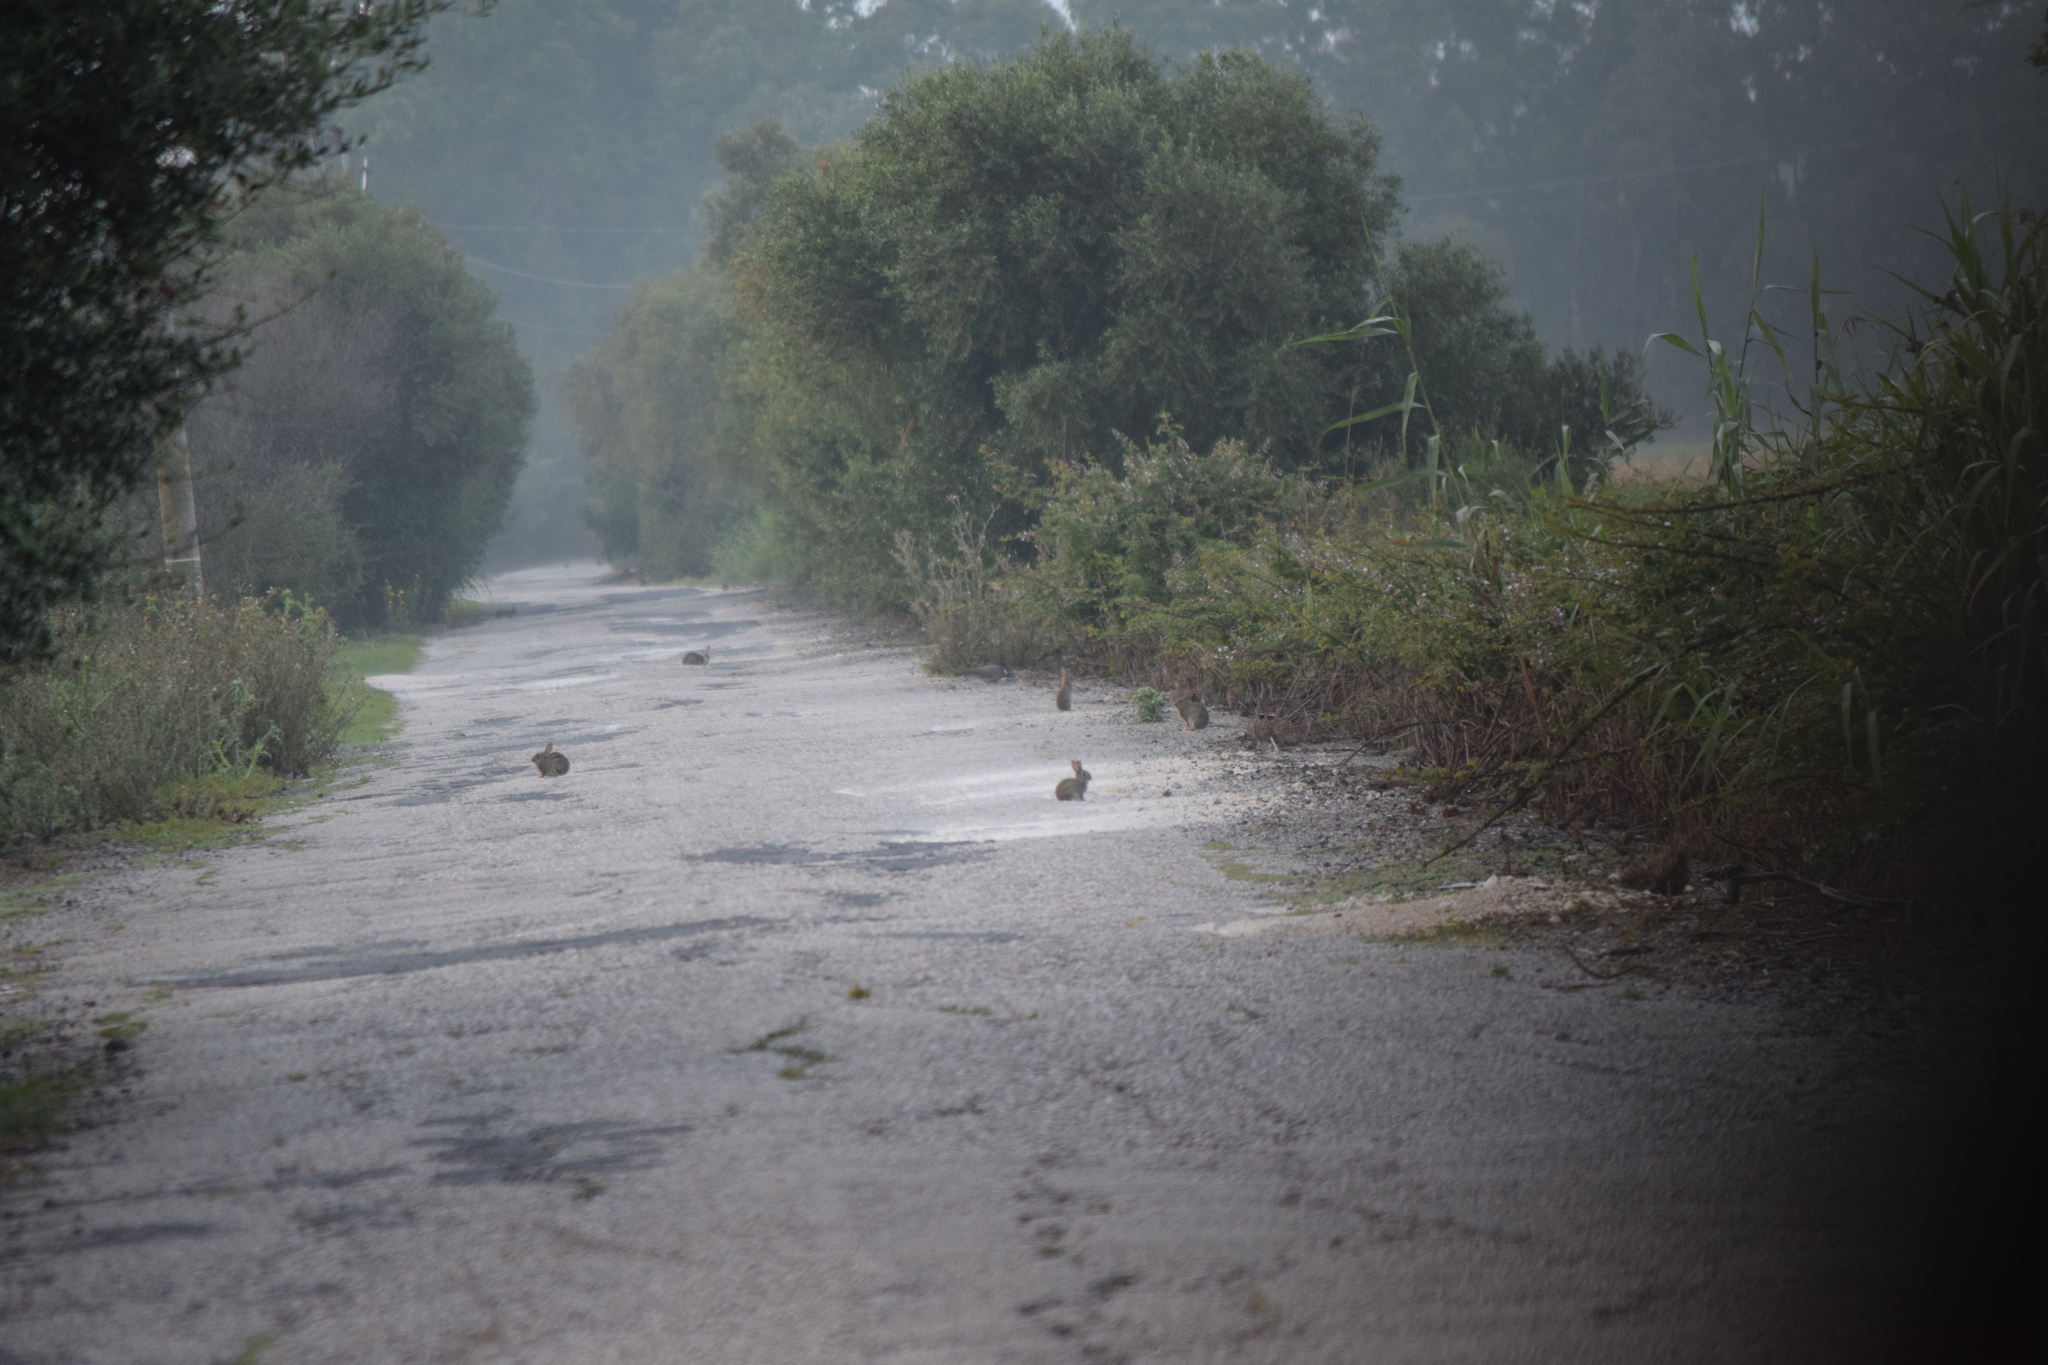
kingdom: Animalia
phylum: Chordata
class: Mammalia
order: Lagomorpha
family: Leporidae
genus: Oryctolagus
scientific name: Oryctolagus cuniculus
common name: European rabbit
